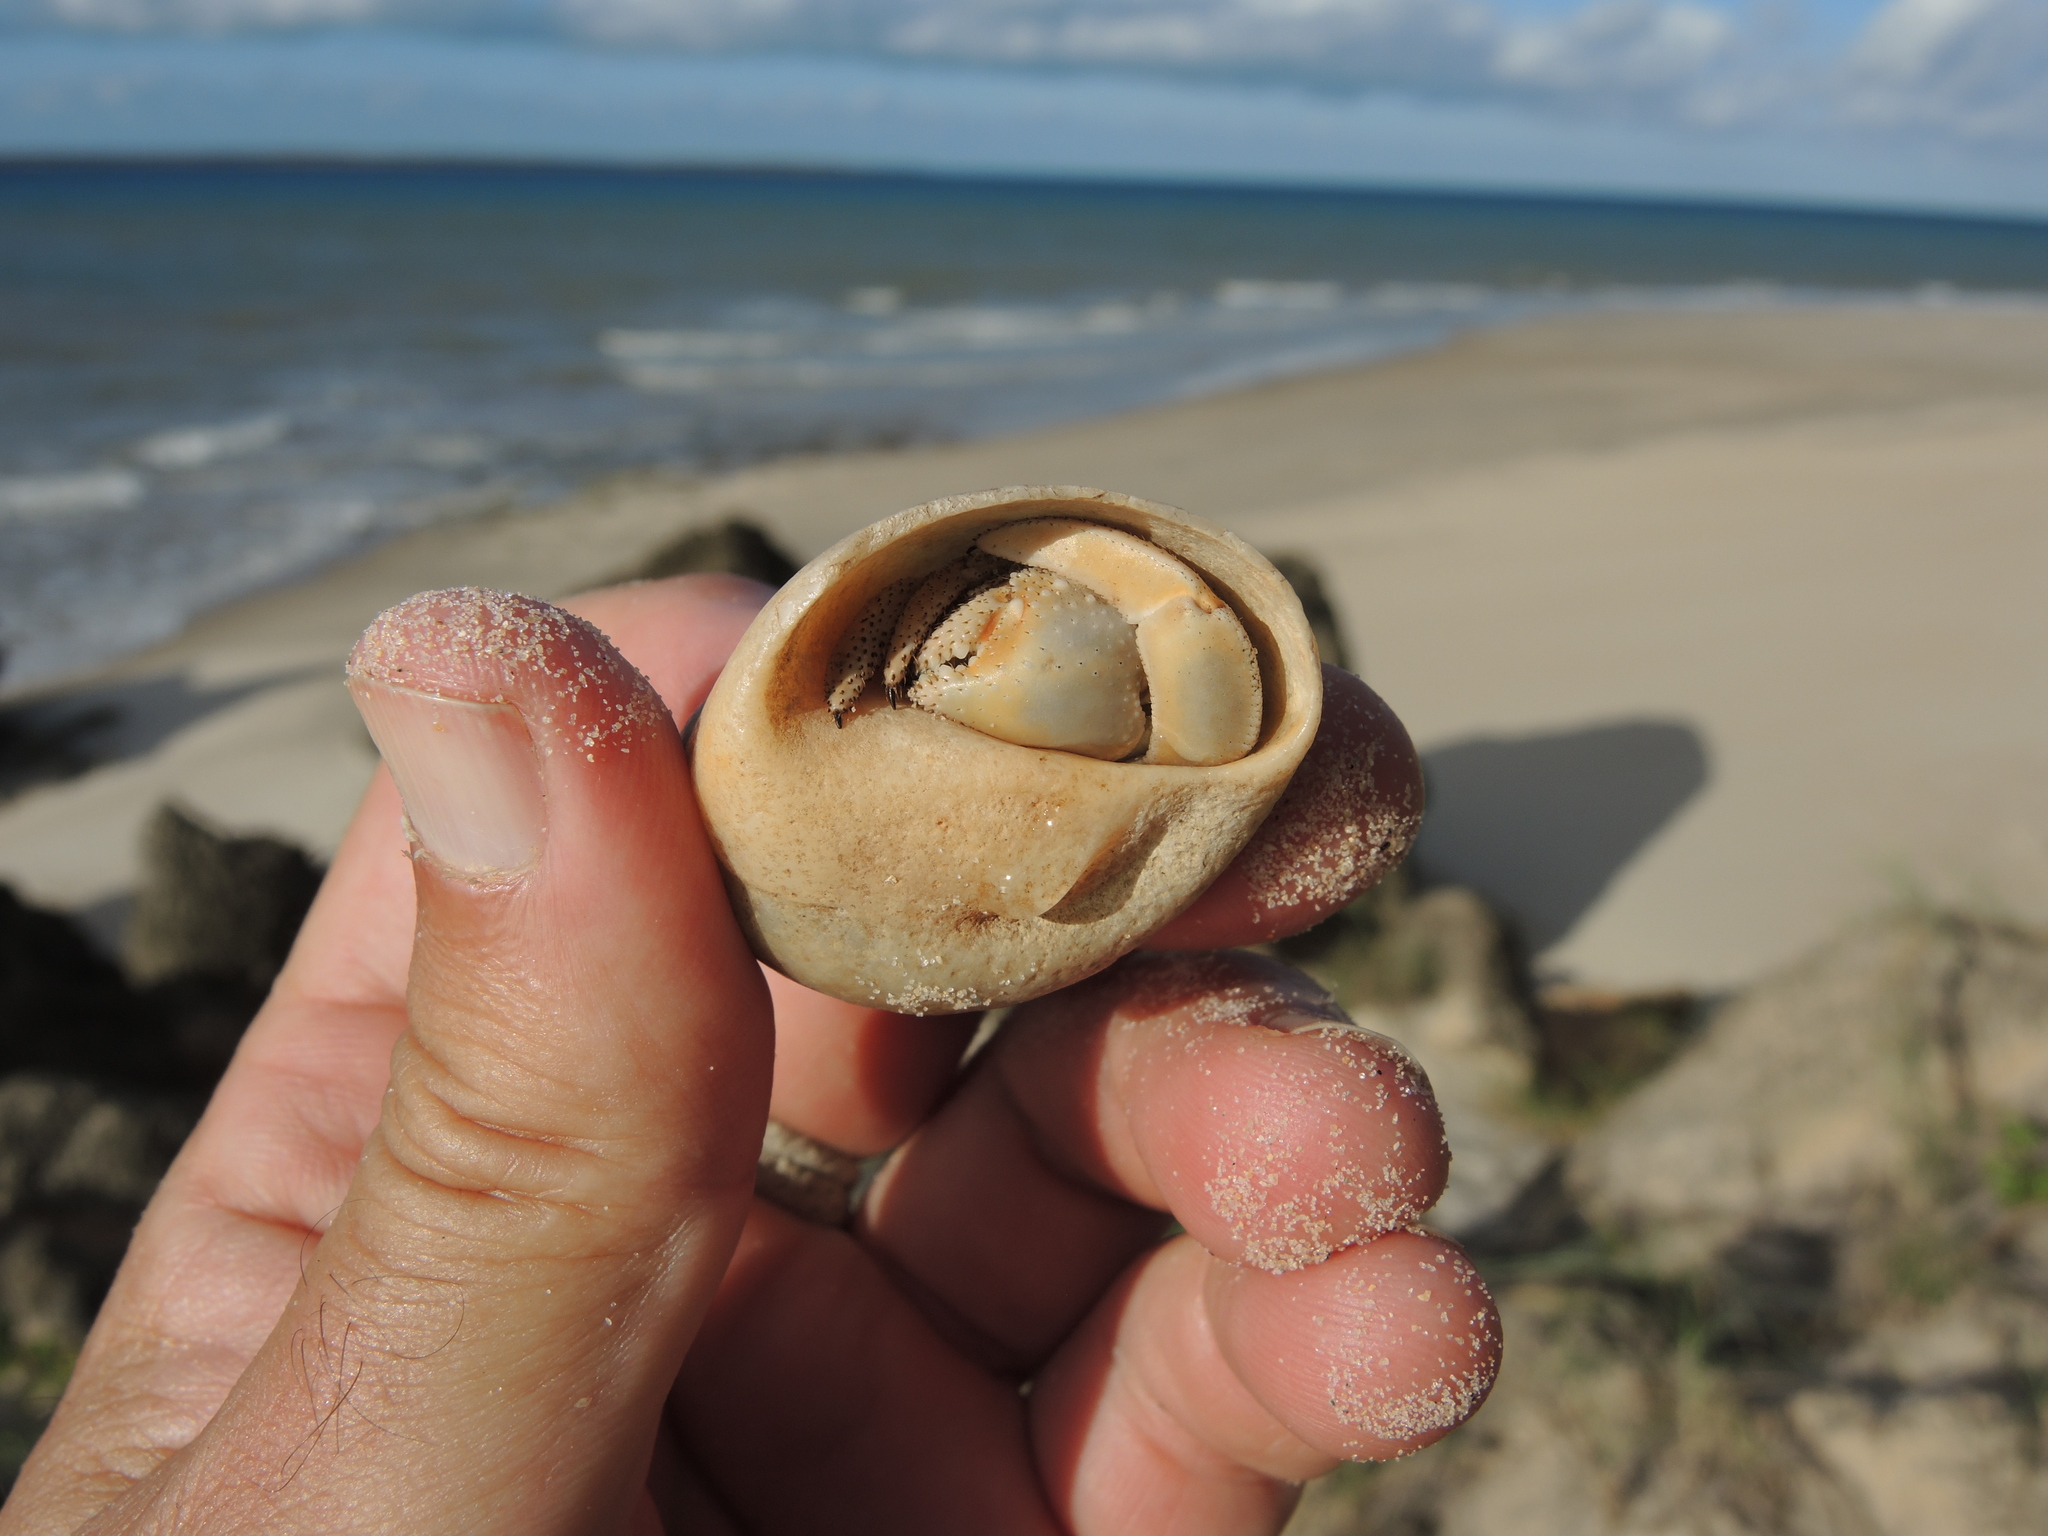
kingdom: Animalia
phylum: Arthropoda
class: Malacostraca
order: Decapoda
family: Coenobitidae
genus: Coenobita
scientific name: Coenobita variabilis
